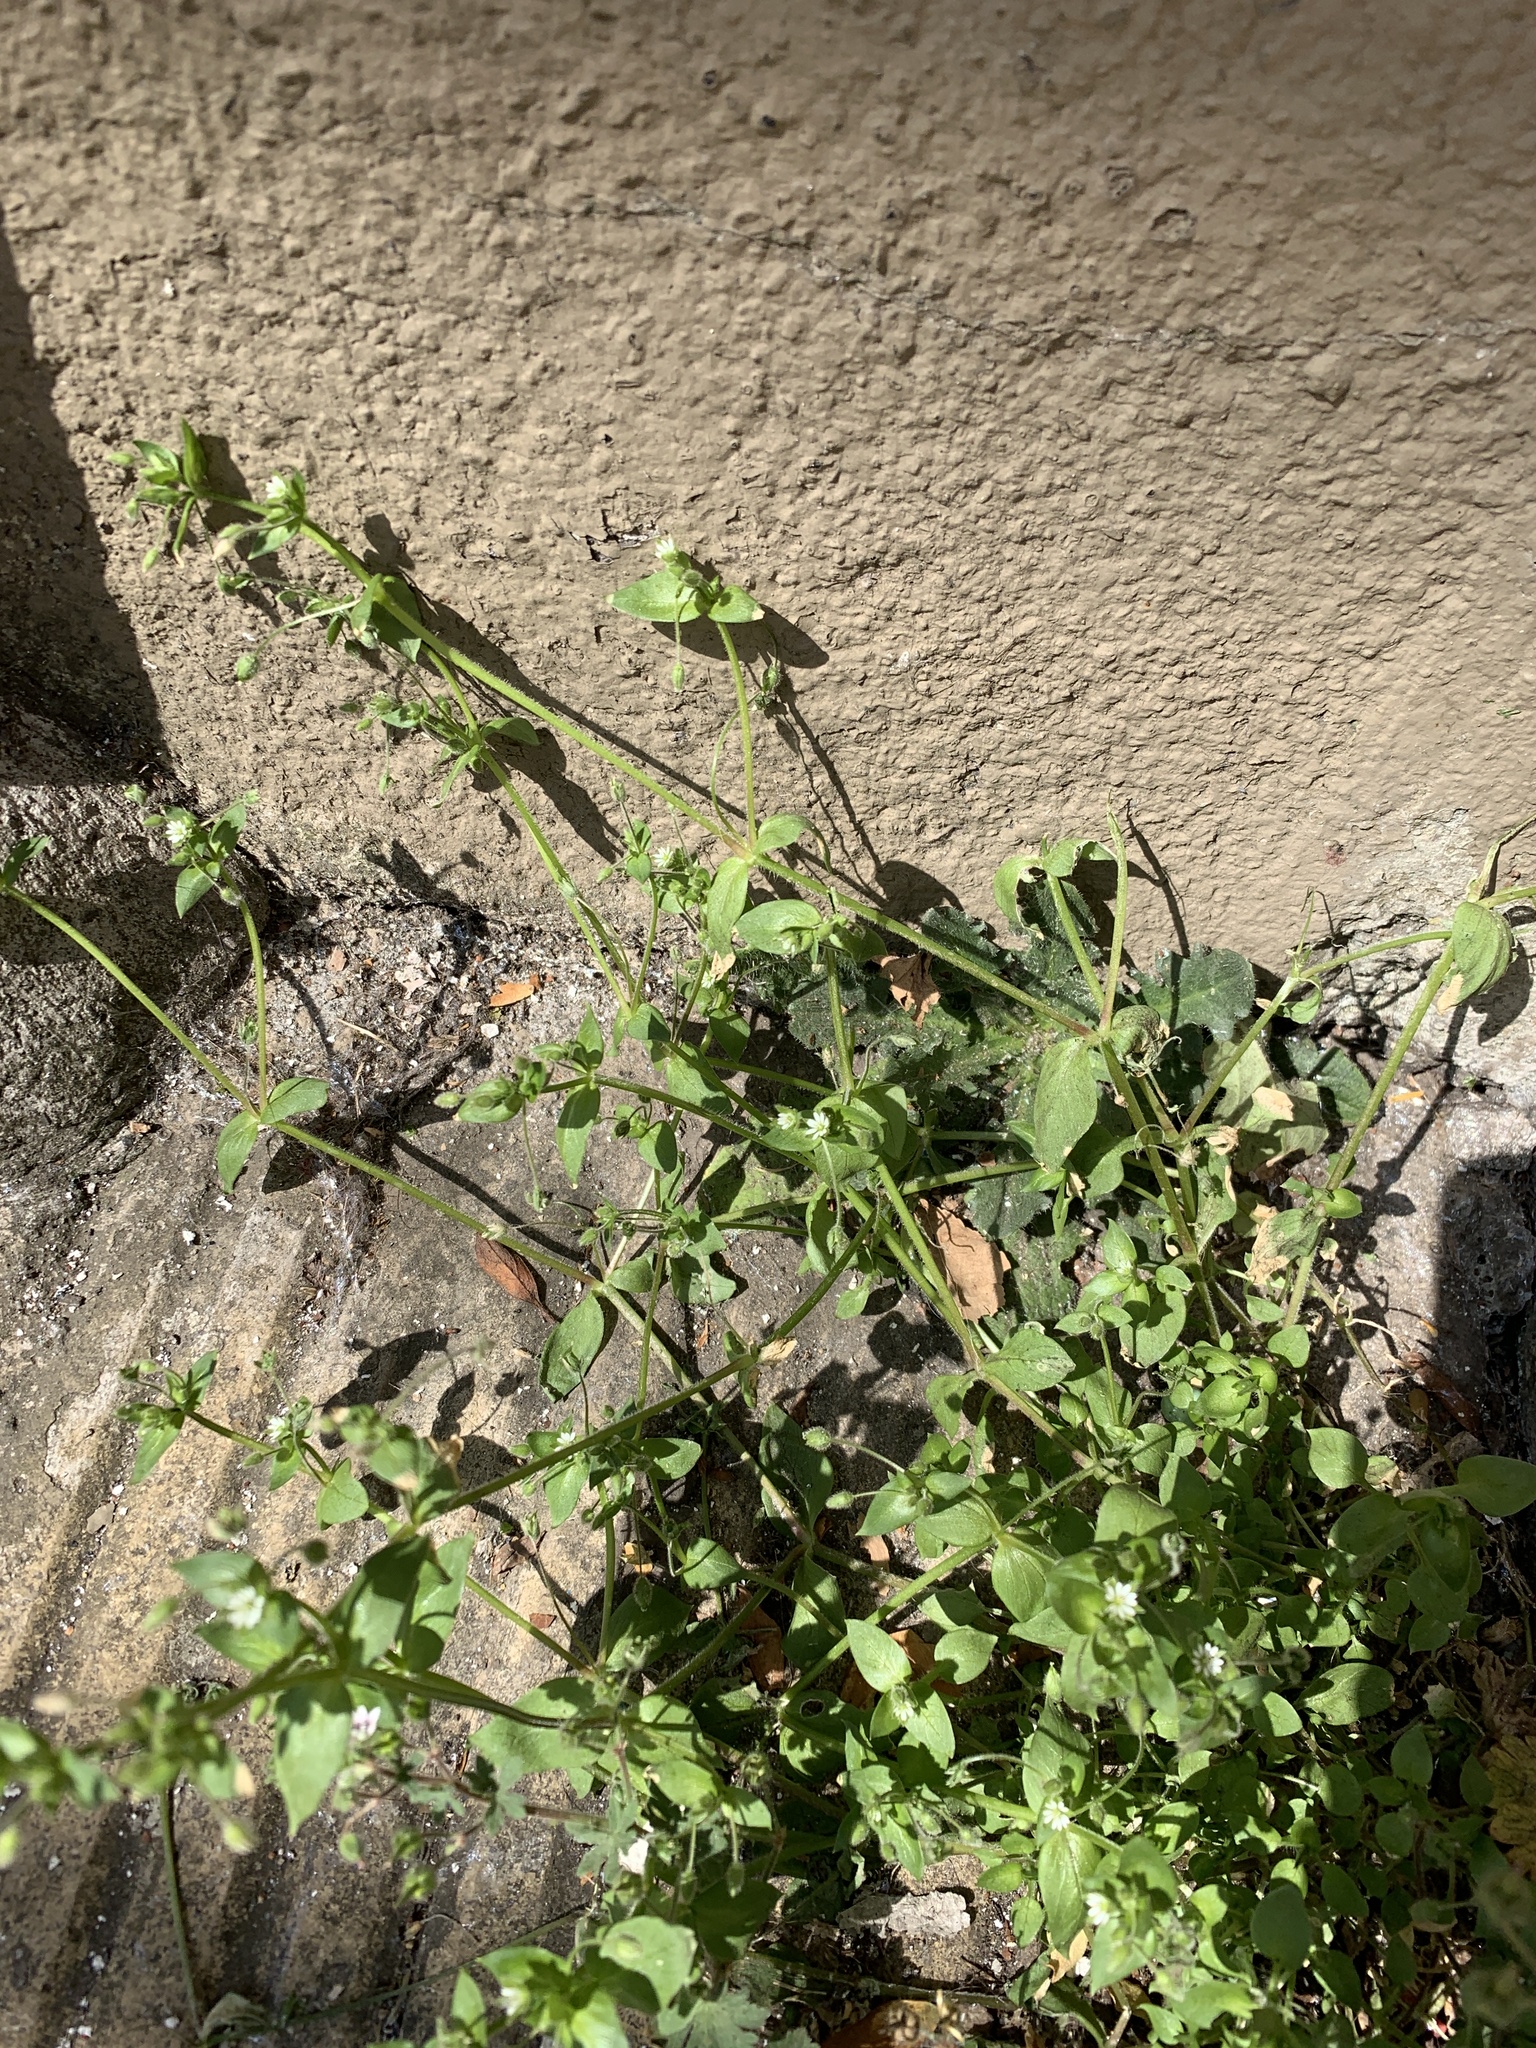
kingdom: Plantae
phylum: Tracheophyta
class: Magnoliopsida
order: Caryophyllales
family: Caryophyllaceae
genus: Stellaria
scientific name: Stellaria media
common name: Common chickweed
